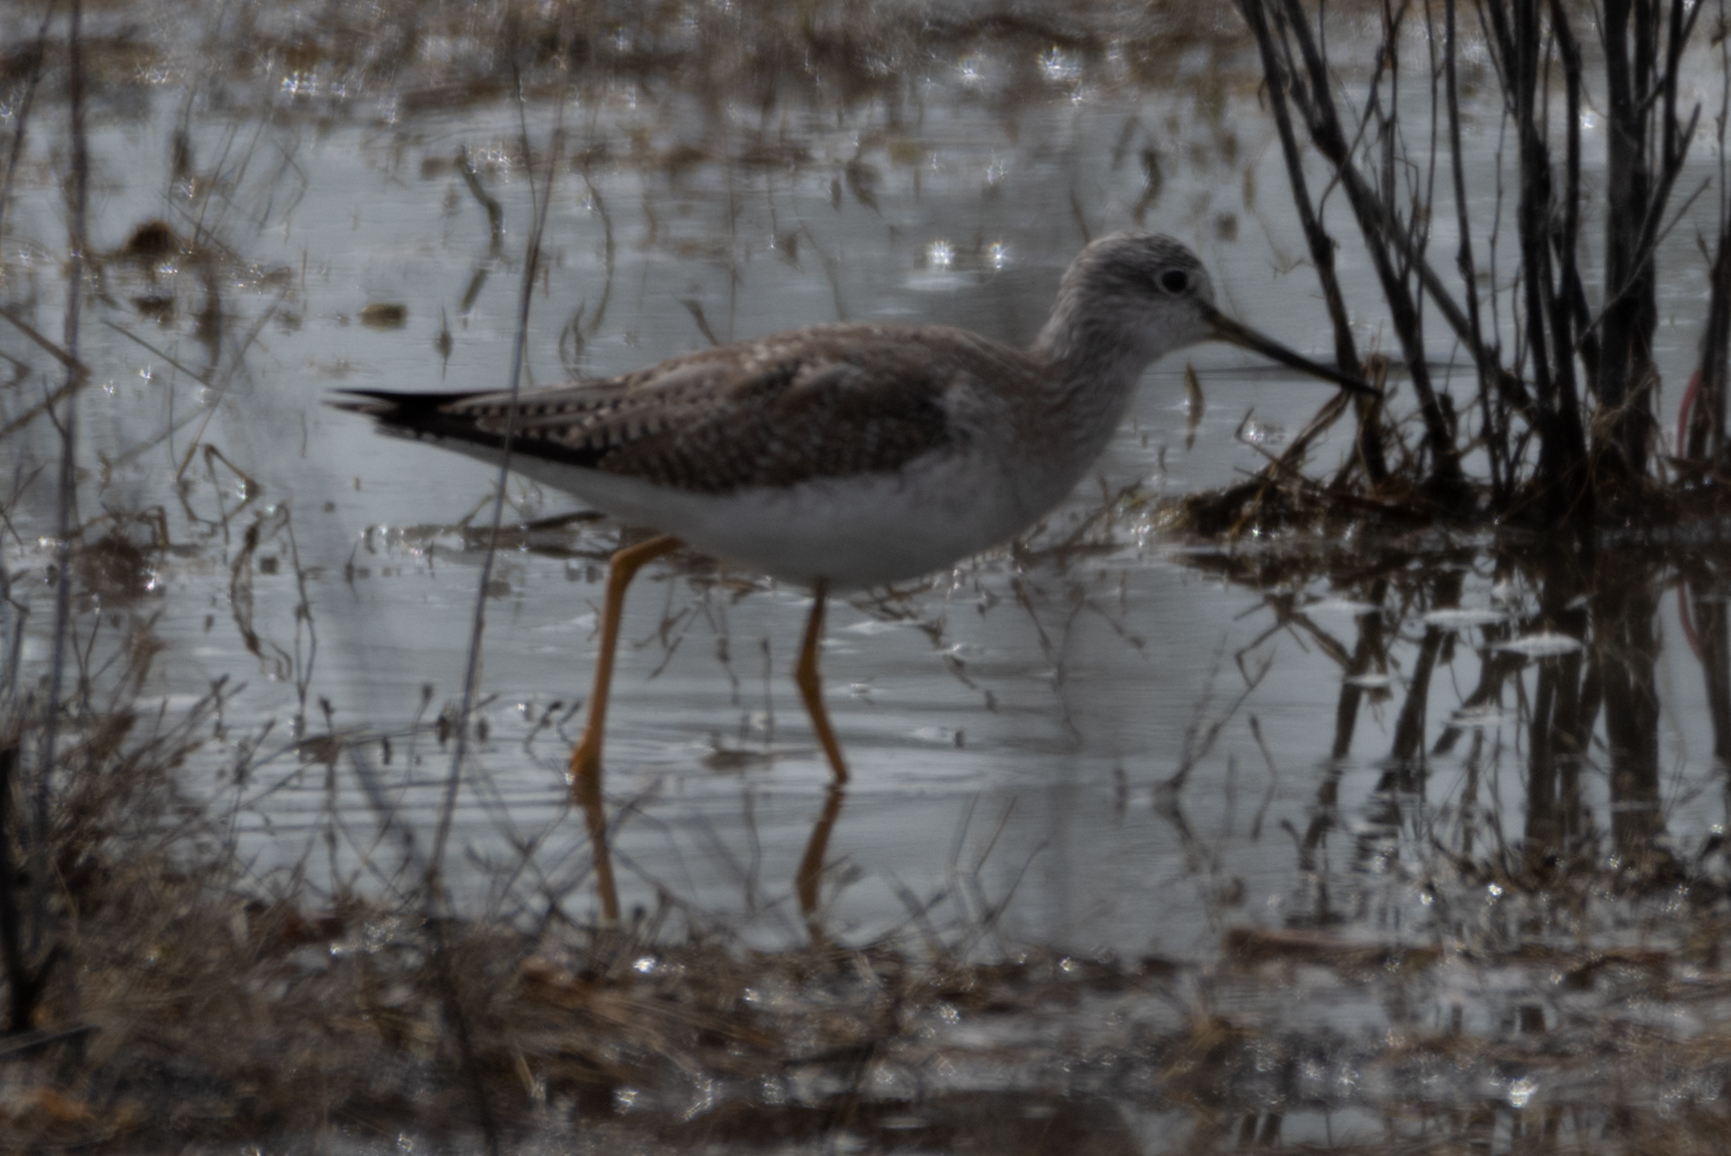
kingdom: Animalia
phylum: Chordata
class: Aves
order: Charadriiformes
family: Scolopacidae
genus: Tringa
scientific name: Tringa melanoleuca
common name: Greater yellowlegs
